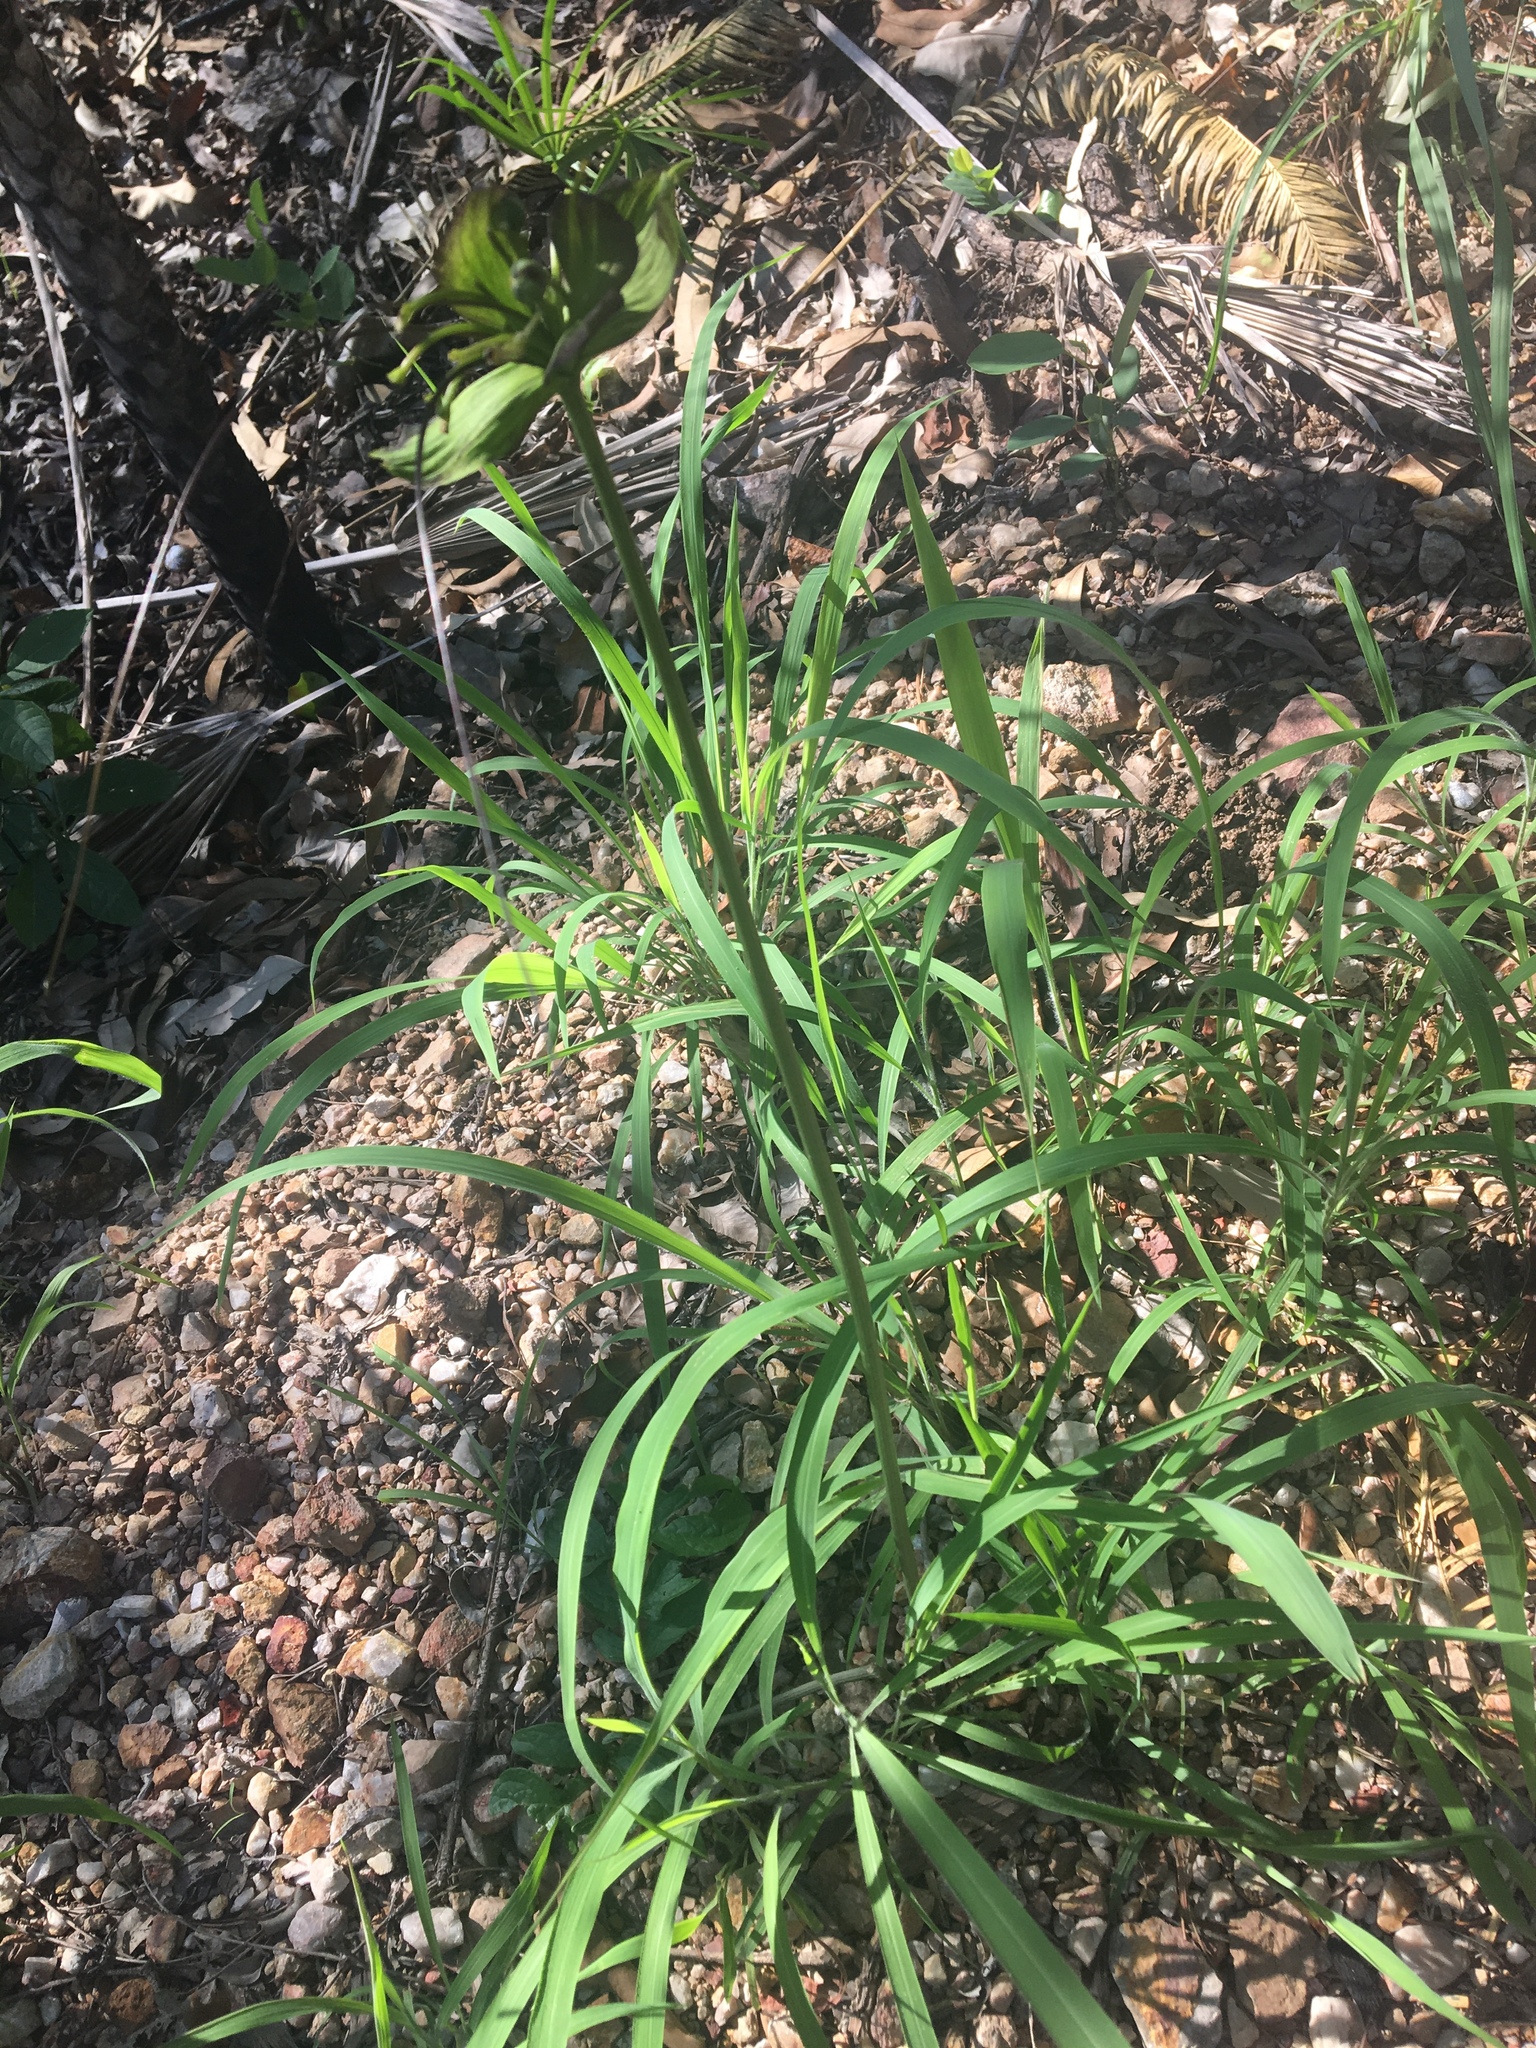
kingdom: Plantae
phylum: Tracheophyta
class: Liliopsida
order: Dioscoreales
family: Dioscoreaceae
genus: Tacca
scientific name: Tacca leontopetaloides
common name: Arrowroot
